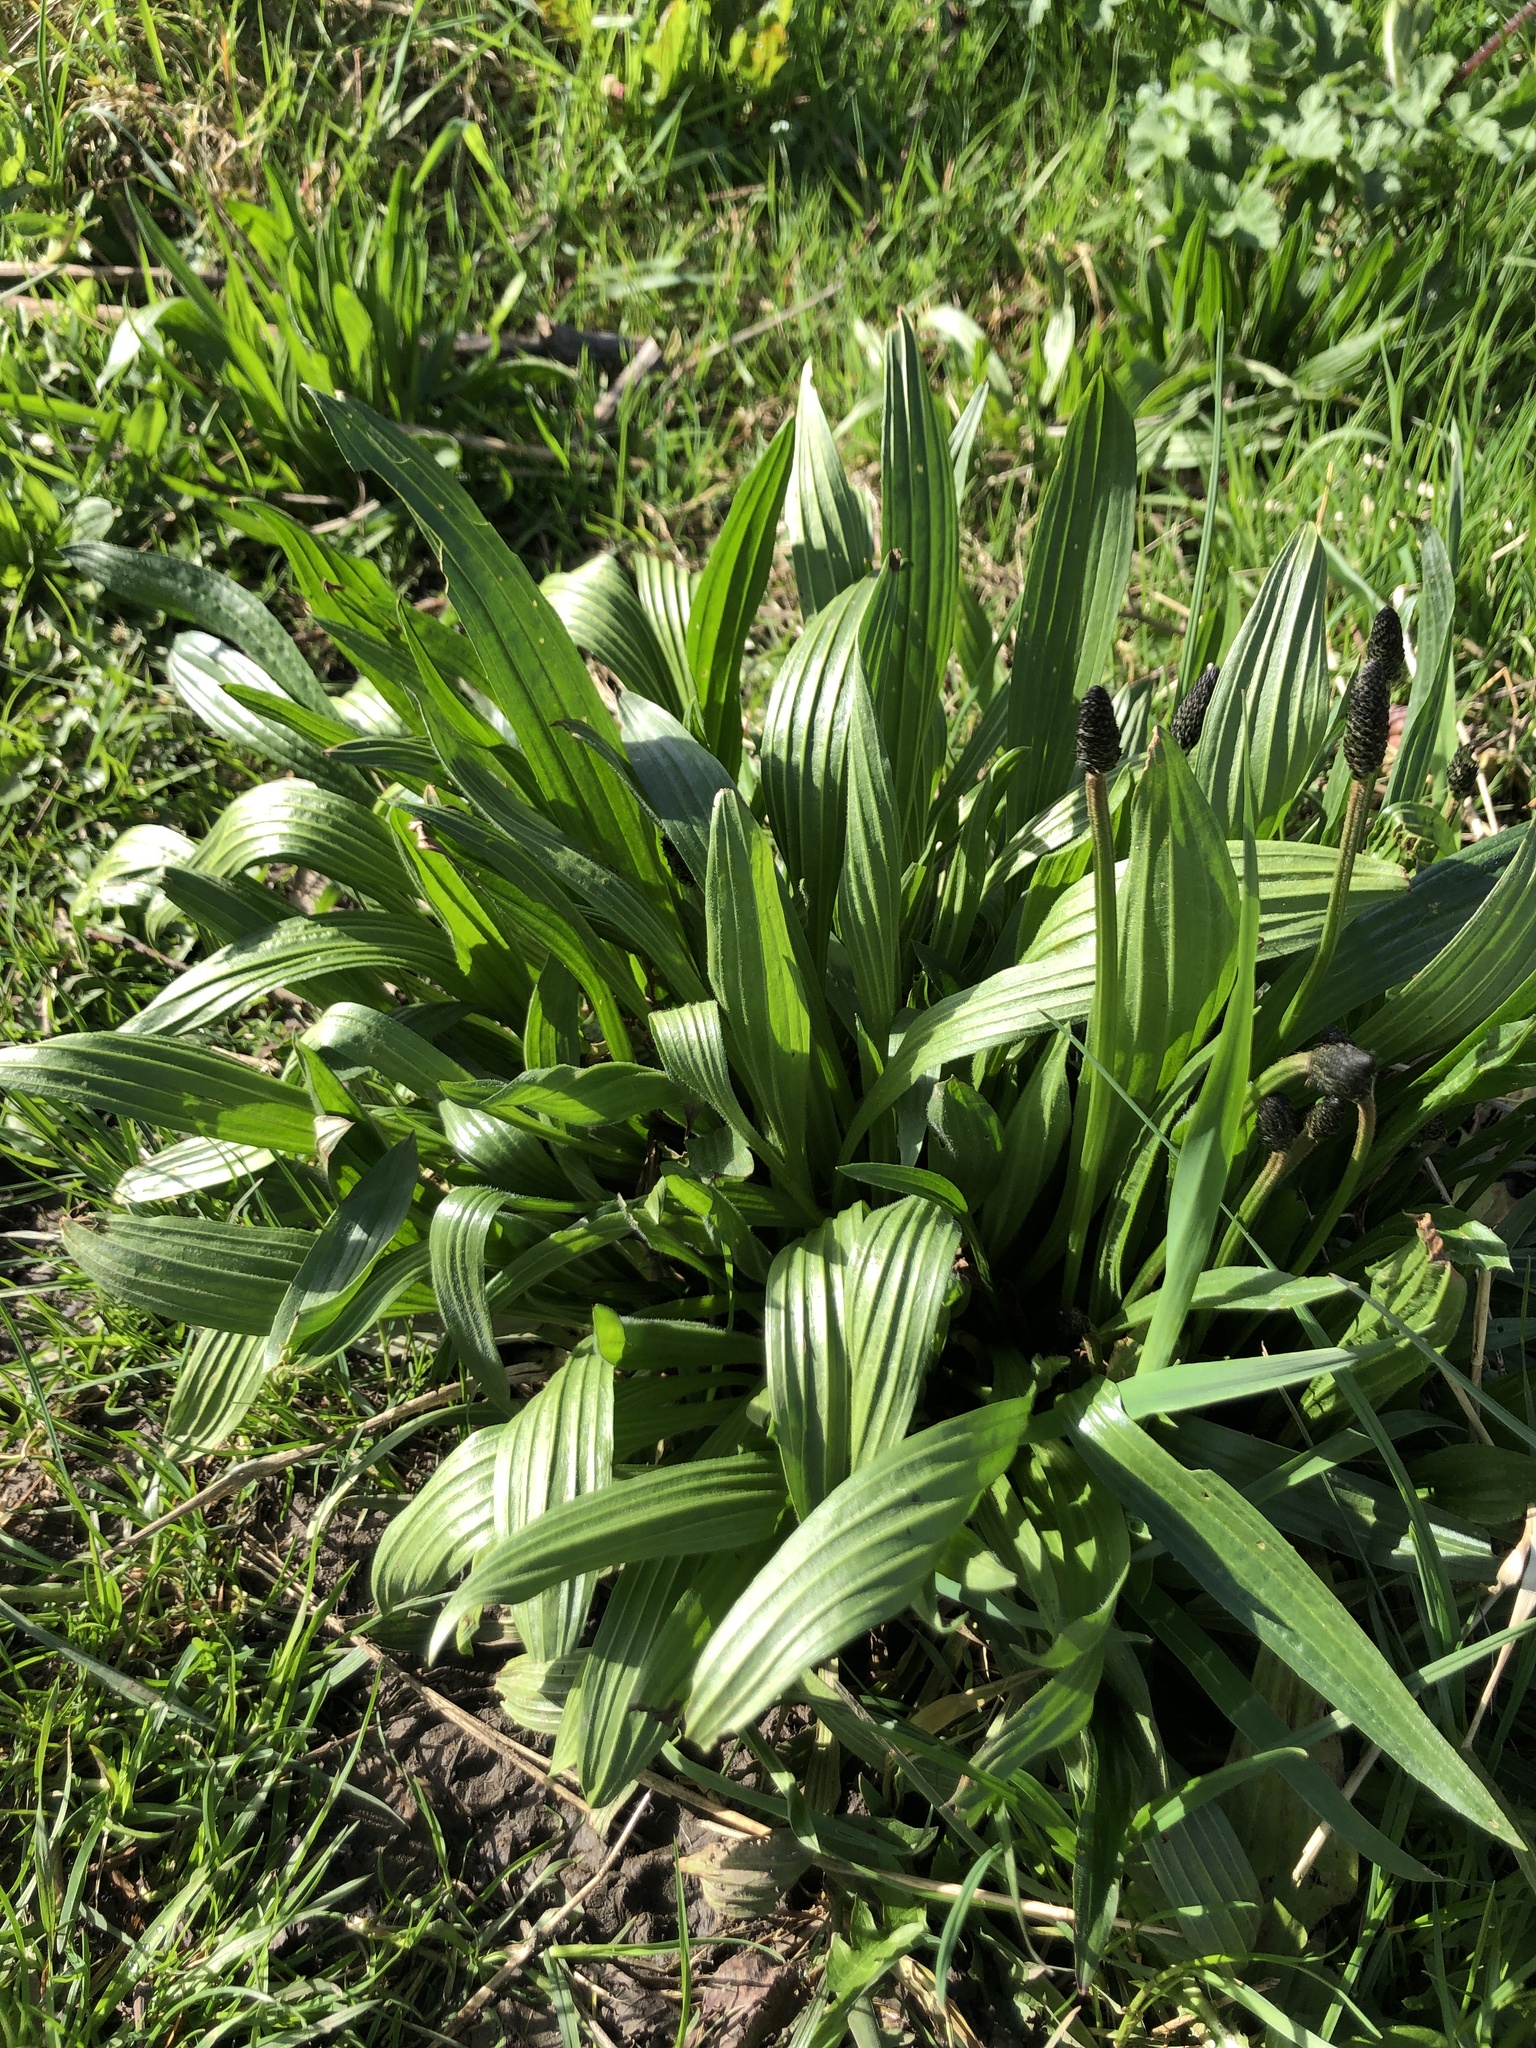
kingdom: Plantae
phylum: Tracheophyta
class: Magnoliopsida
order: Lamiales
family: Plantaginaceae
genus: Plantago
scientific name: Plantago lanceolata
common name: Ribwort plantain
